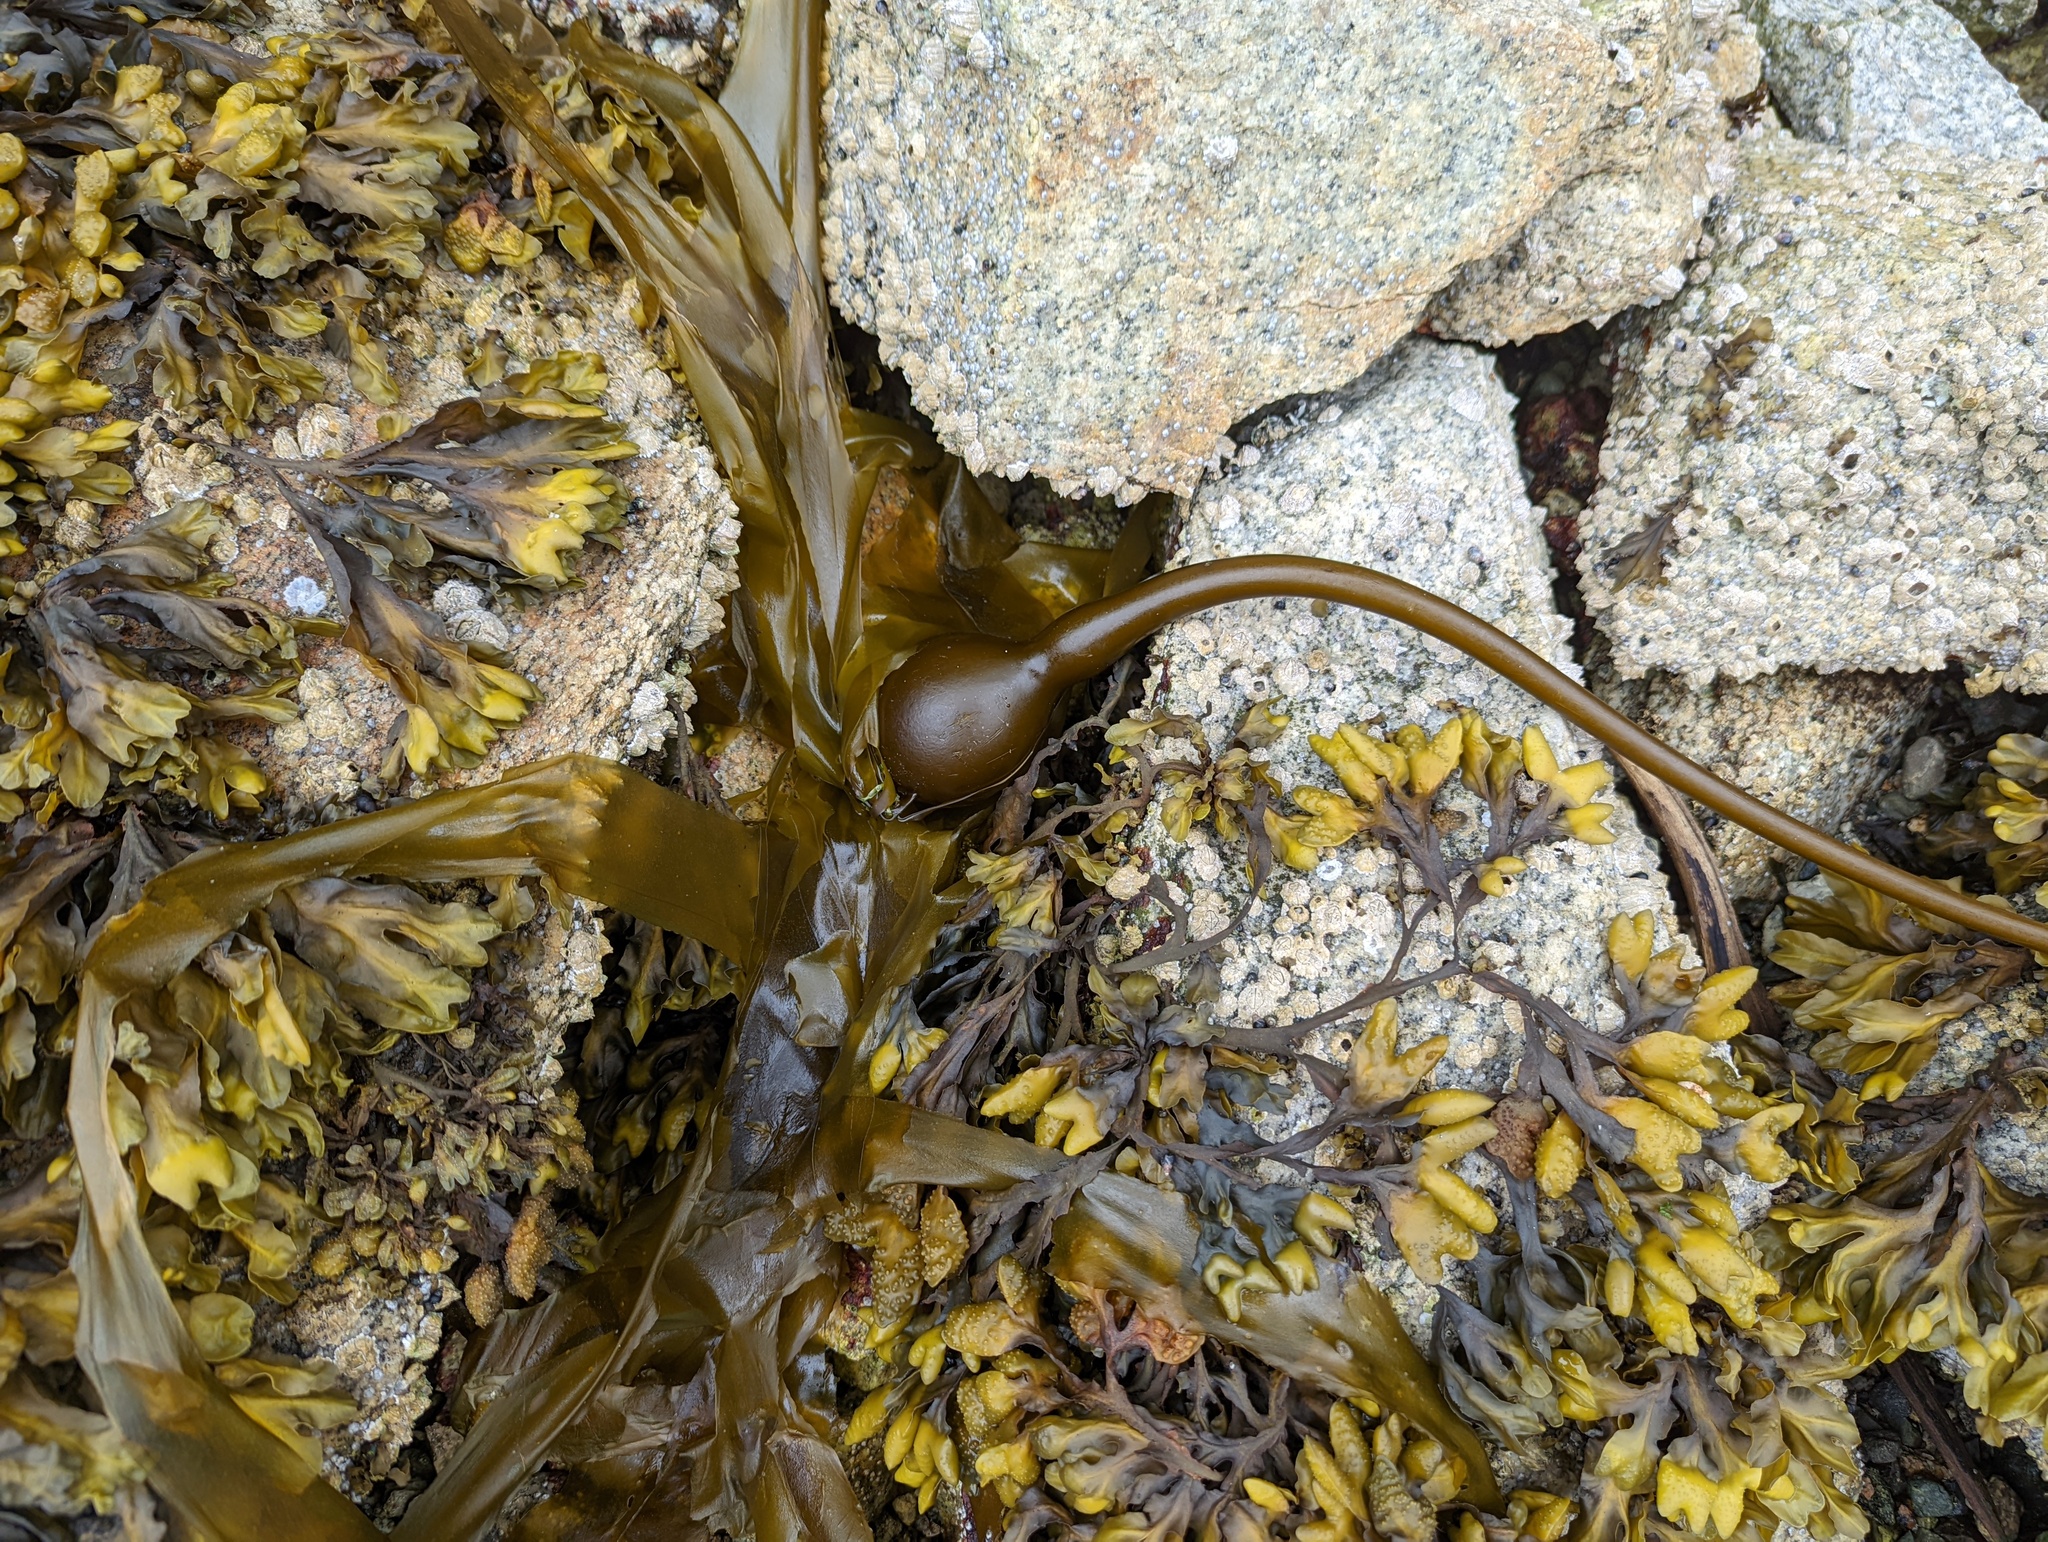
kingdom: Chromista
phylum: Ochrophyta
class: Phaeophyceae
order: Laminariales
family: Laminariaceae
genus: Nereocystis
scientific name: Nereocystis luetkeana
